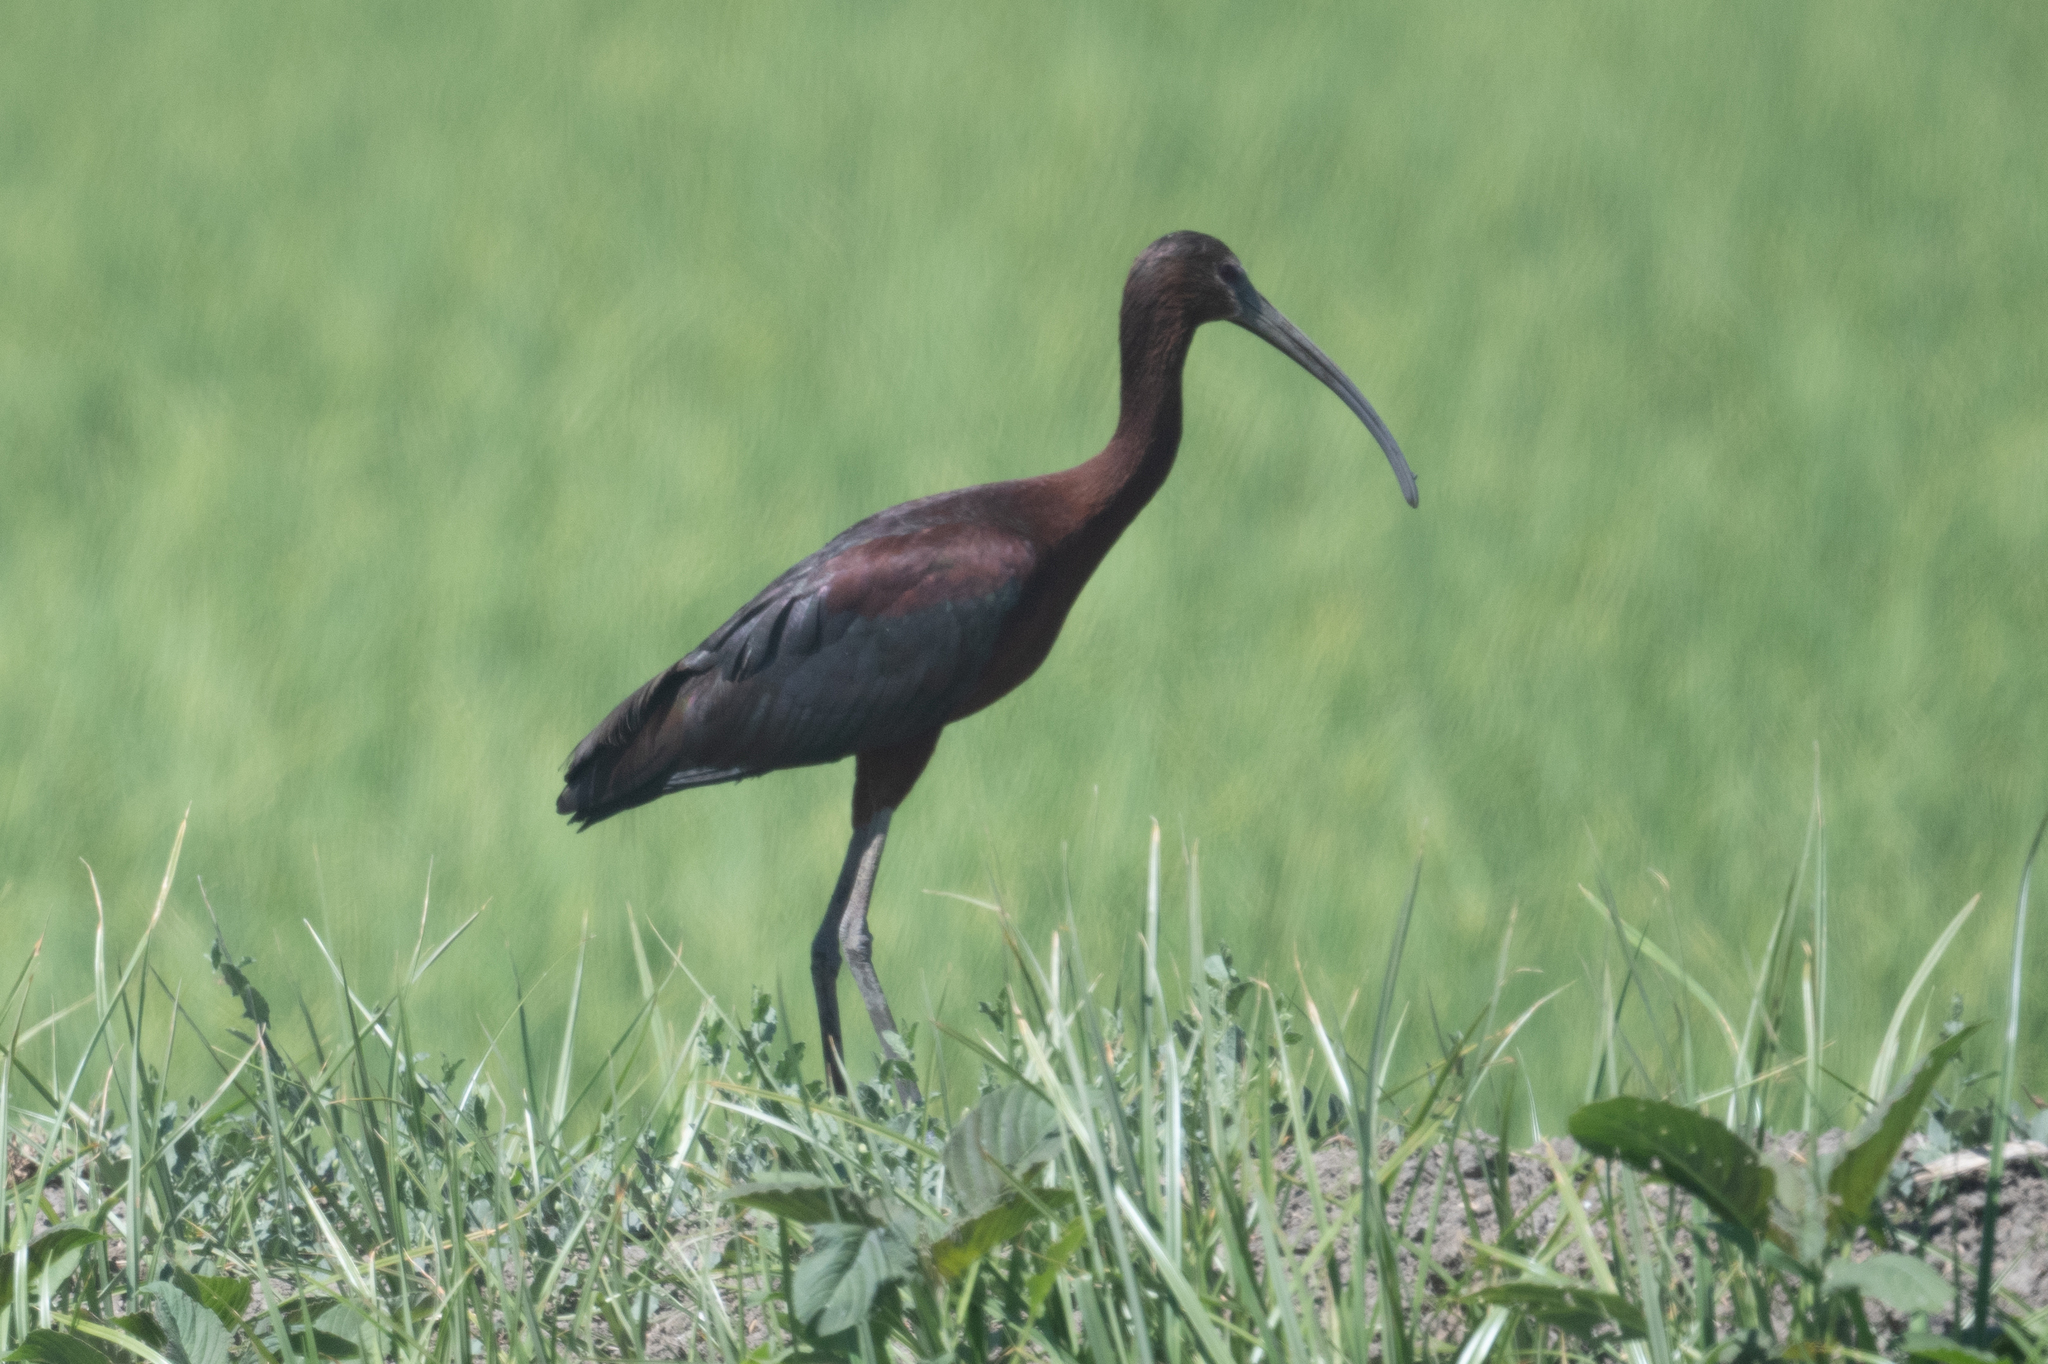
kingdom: Animalia
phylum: Chordata
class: Aves
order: Pelecaniformes
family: Threskiornithidae
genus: Plegadis
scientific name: Plegadis chihi
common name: White-faced ibis
